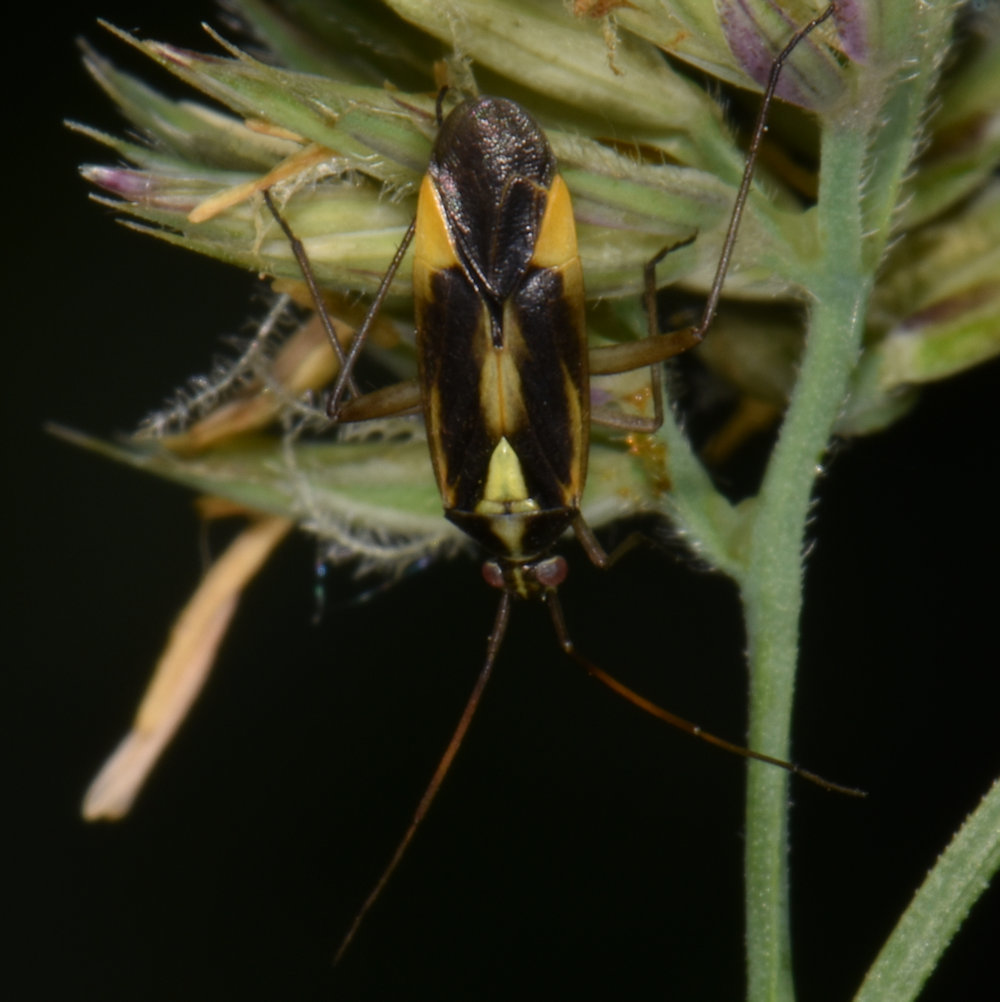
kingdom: Animalia
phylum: Arthropoda
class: Insecta
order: Hemiptera
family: Miridae
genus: Stenotus
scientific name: Stenotus binotatus
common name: Plant bug
